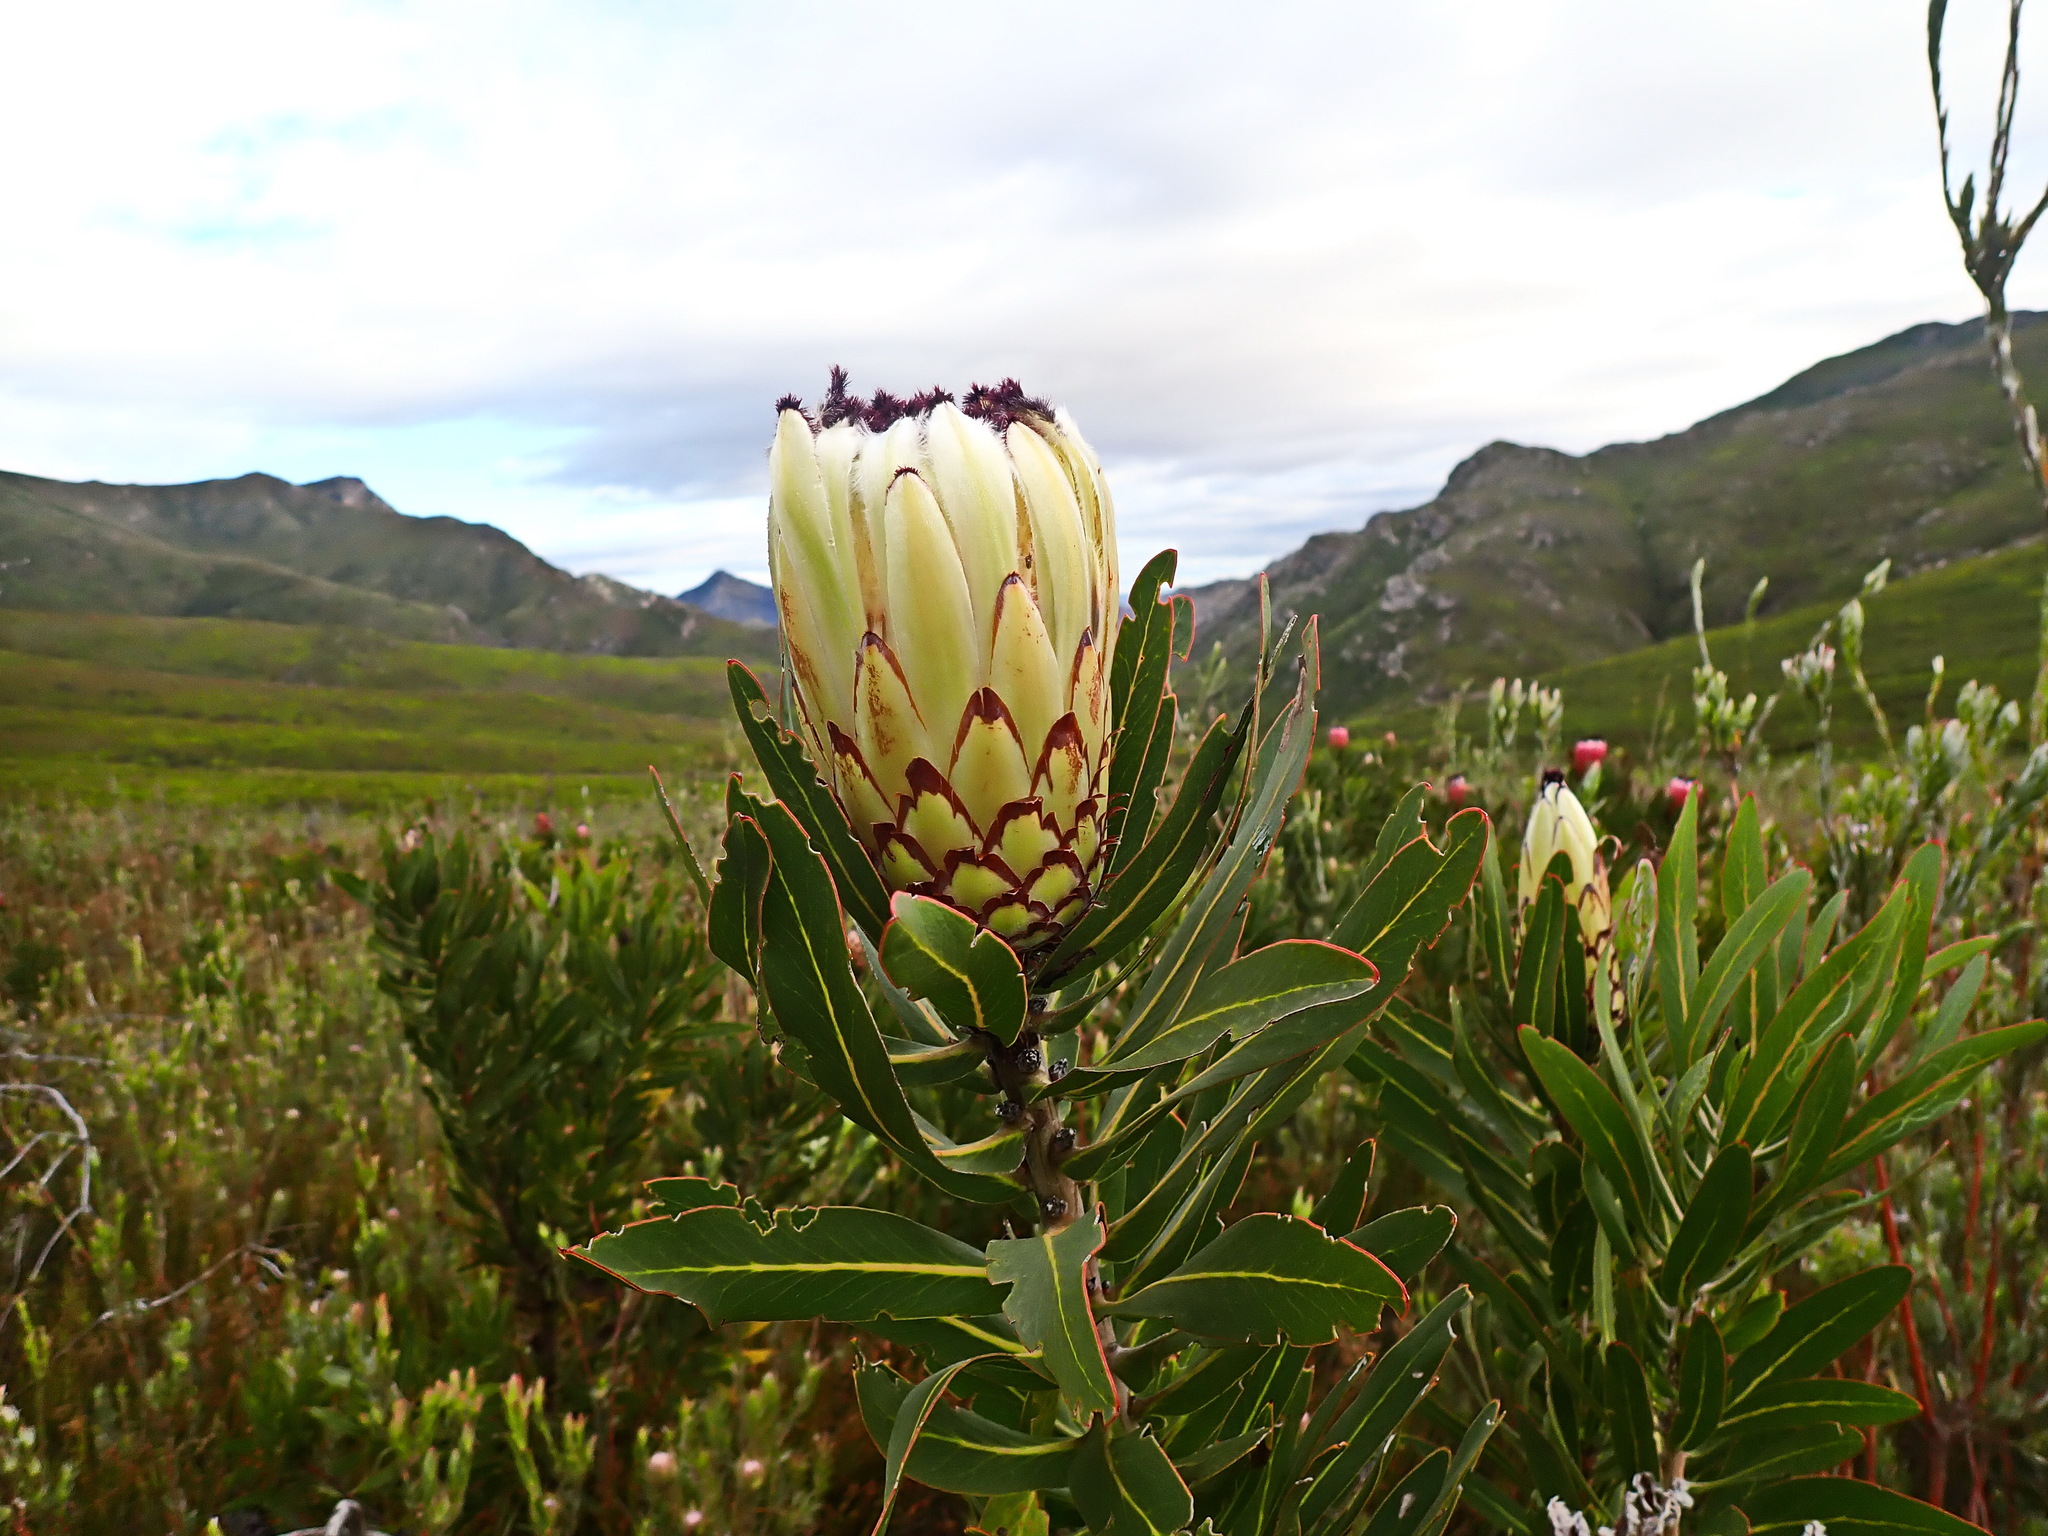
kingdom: Plantae
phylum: Tracheophyta
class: Magnoliopsida
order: Proteales
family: Proteaceae
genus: Protea
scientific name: Protea neriifolia
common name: Blue sugarbush
